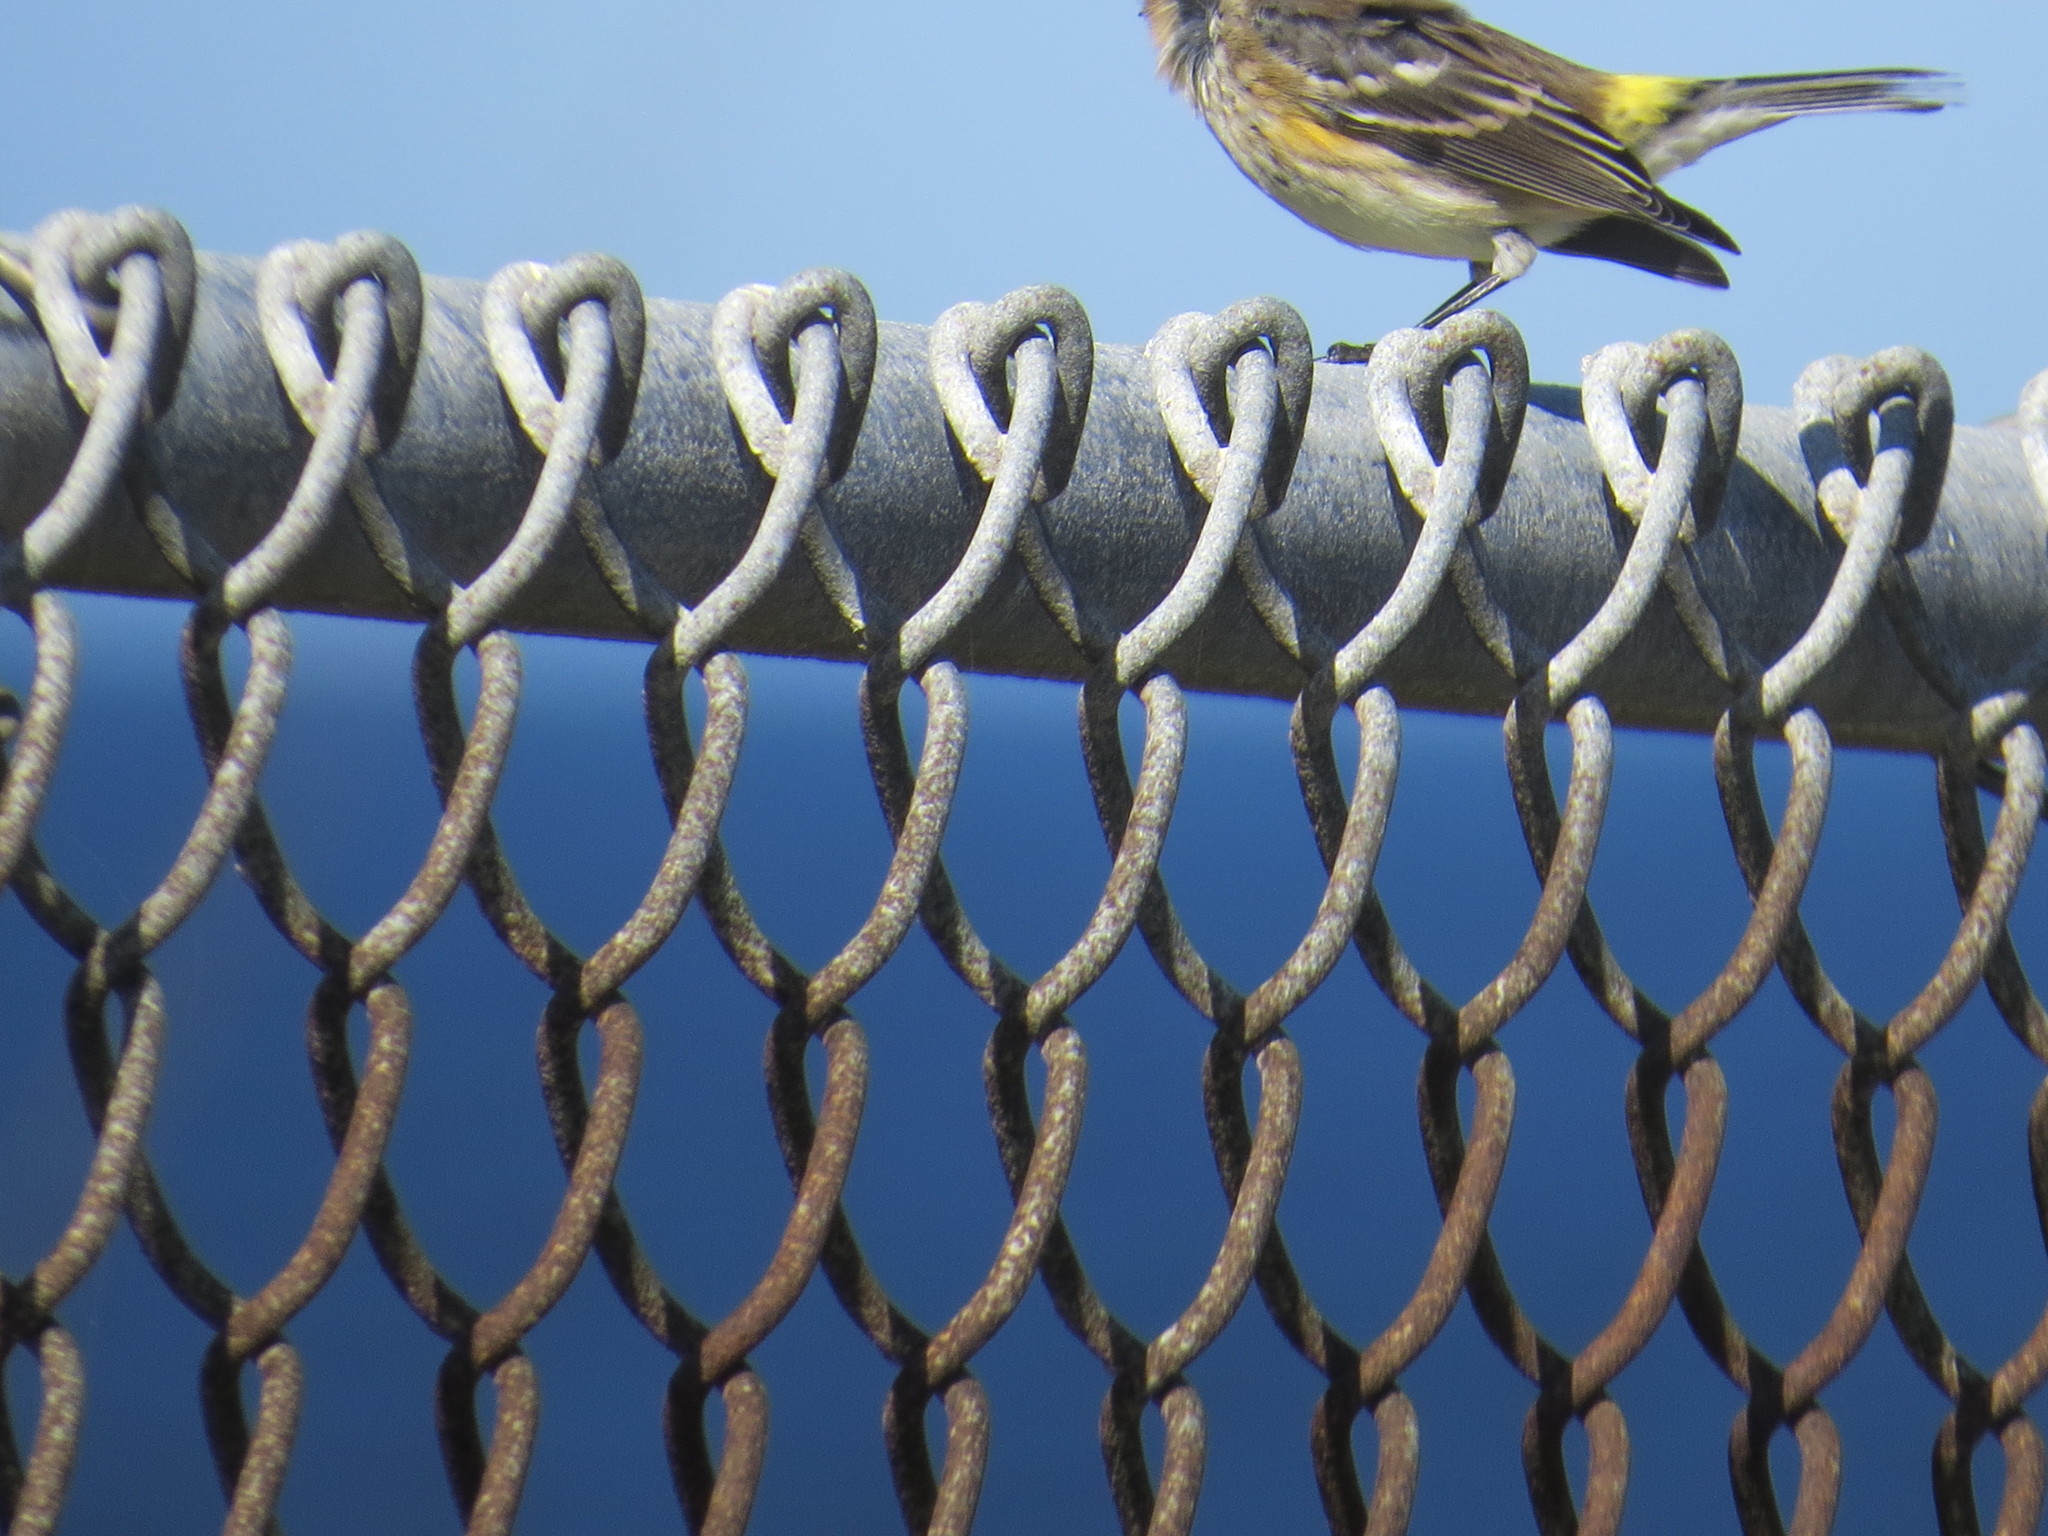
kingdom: Animalia
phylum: Chordata
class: Aves
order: Passeriformes
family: Parulidae
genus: Setophaga
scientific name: Setophaga coronata
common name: Myrtle warbler
